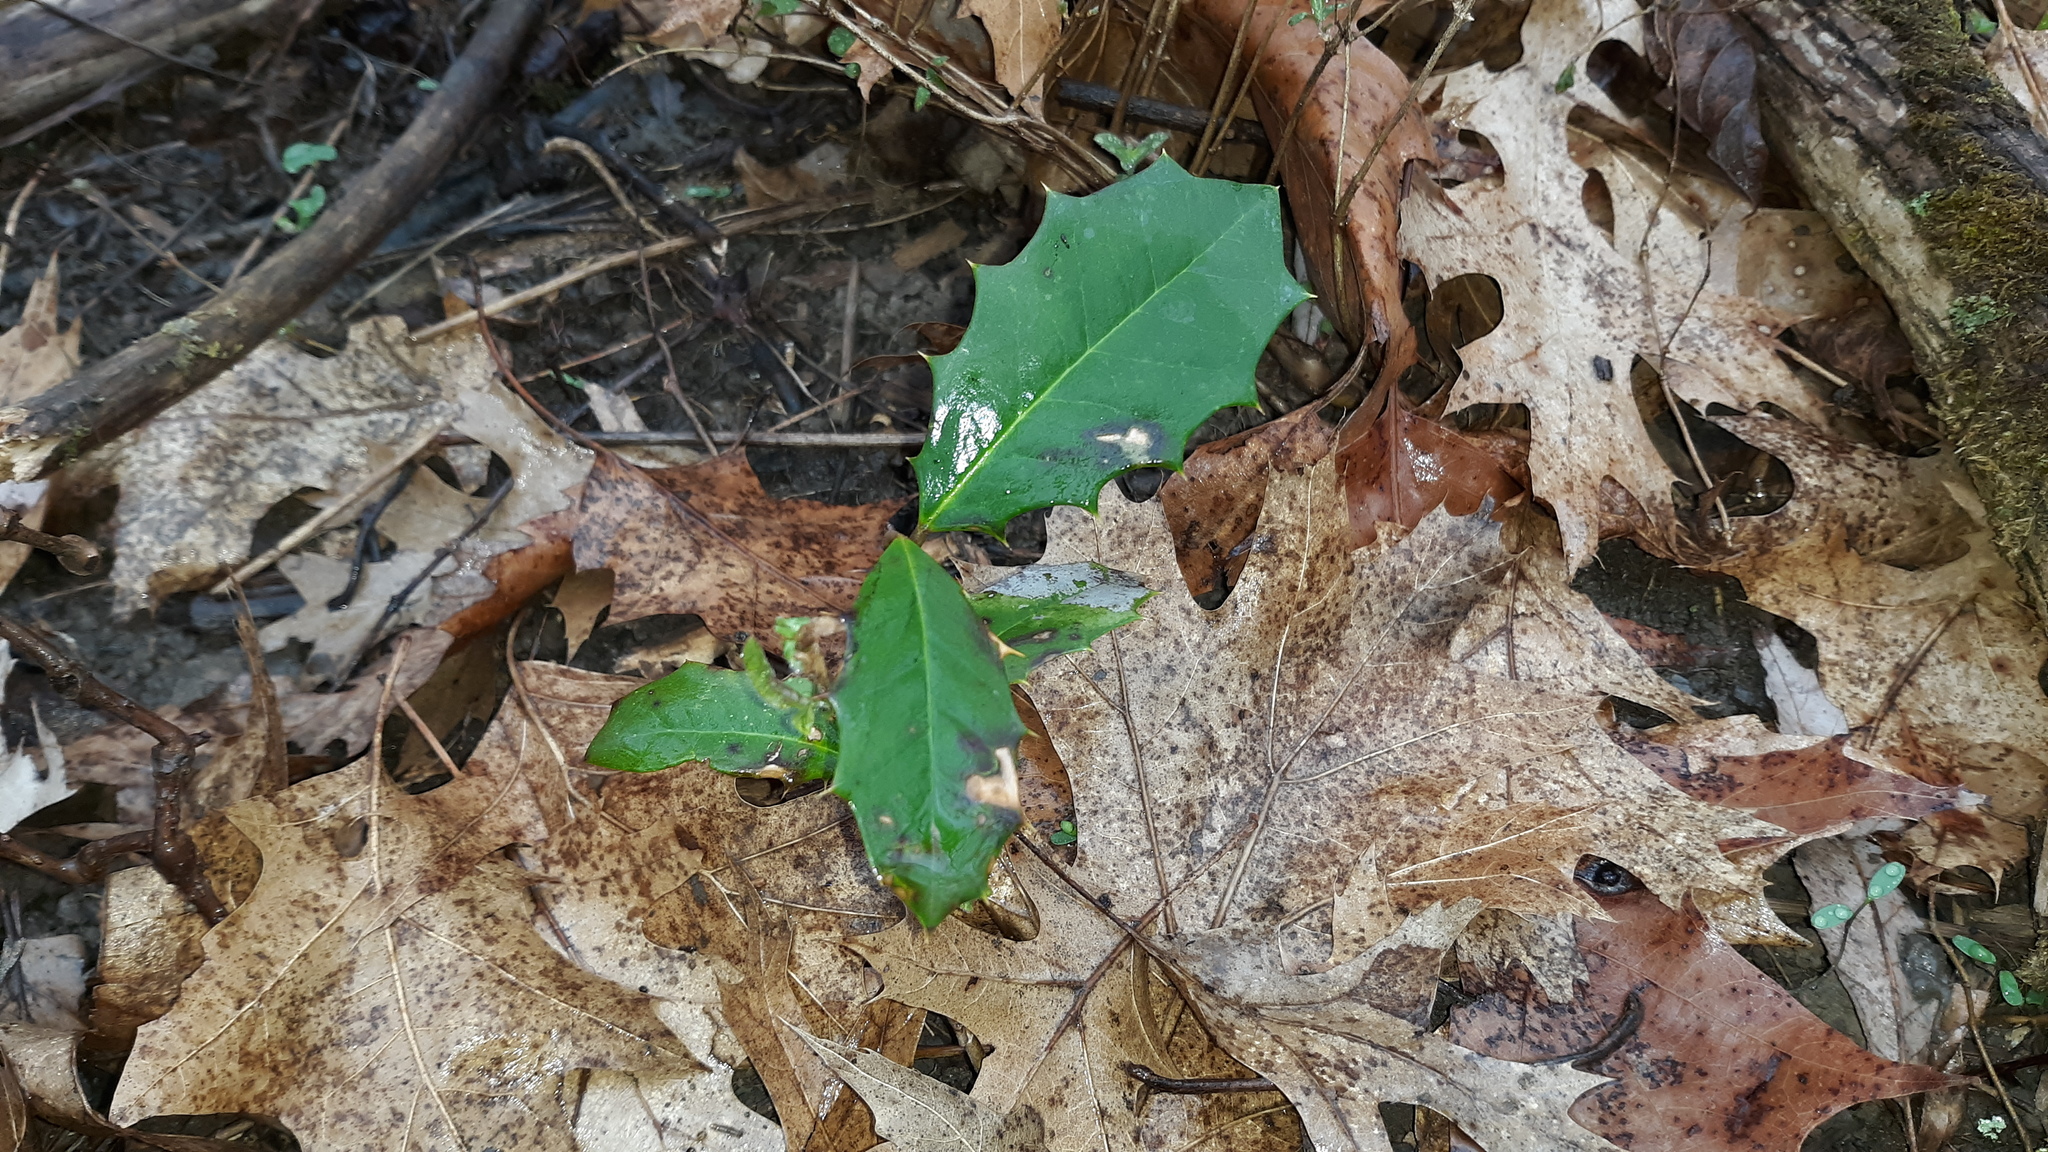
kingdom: Plantae
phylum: Tracheophyta
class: Magnoliopsida
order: Aquifoliales
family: Aquifoliaceae
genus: Ilex
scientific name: Ilex opaca
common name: American holly
